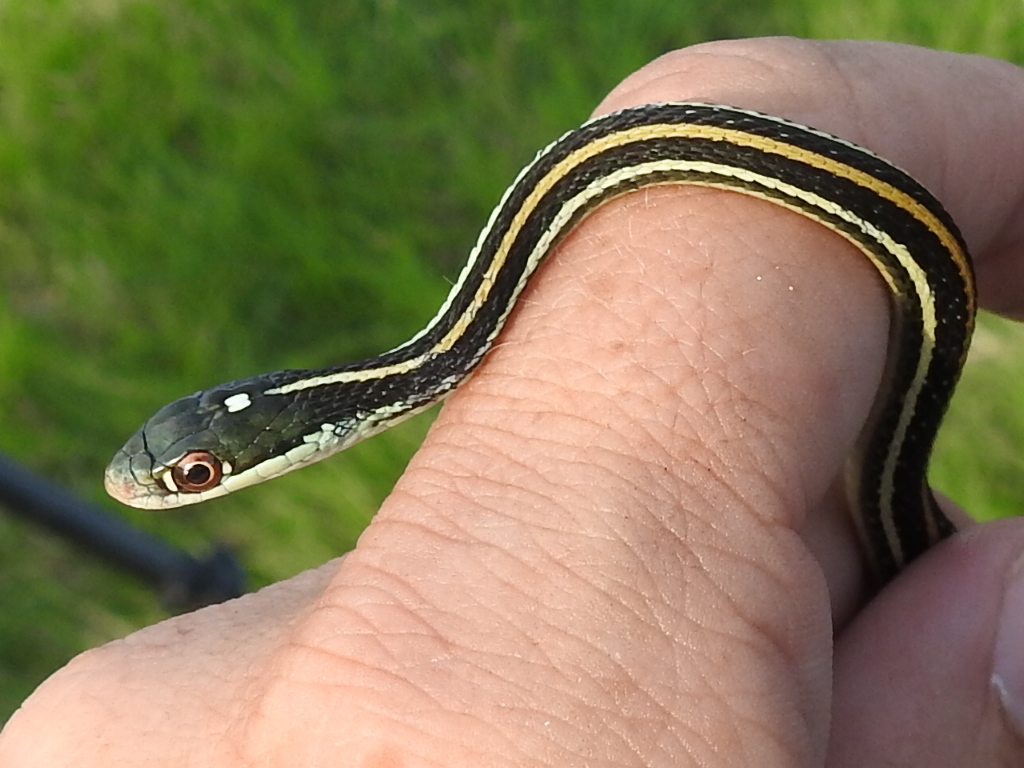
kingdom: Animalia
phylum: Chordata
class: Squamata
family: Colubridae
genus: Thamnophis
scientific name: Thamnophis proximus
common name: Western ribbon snake
